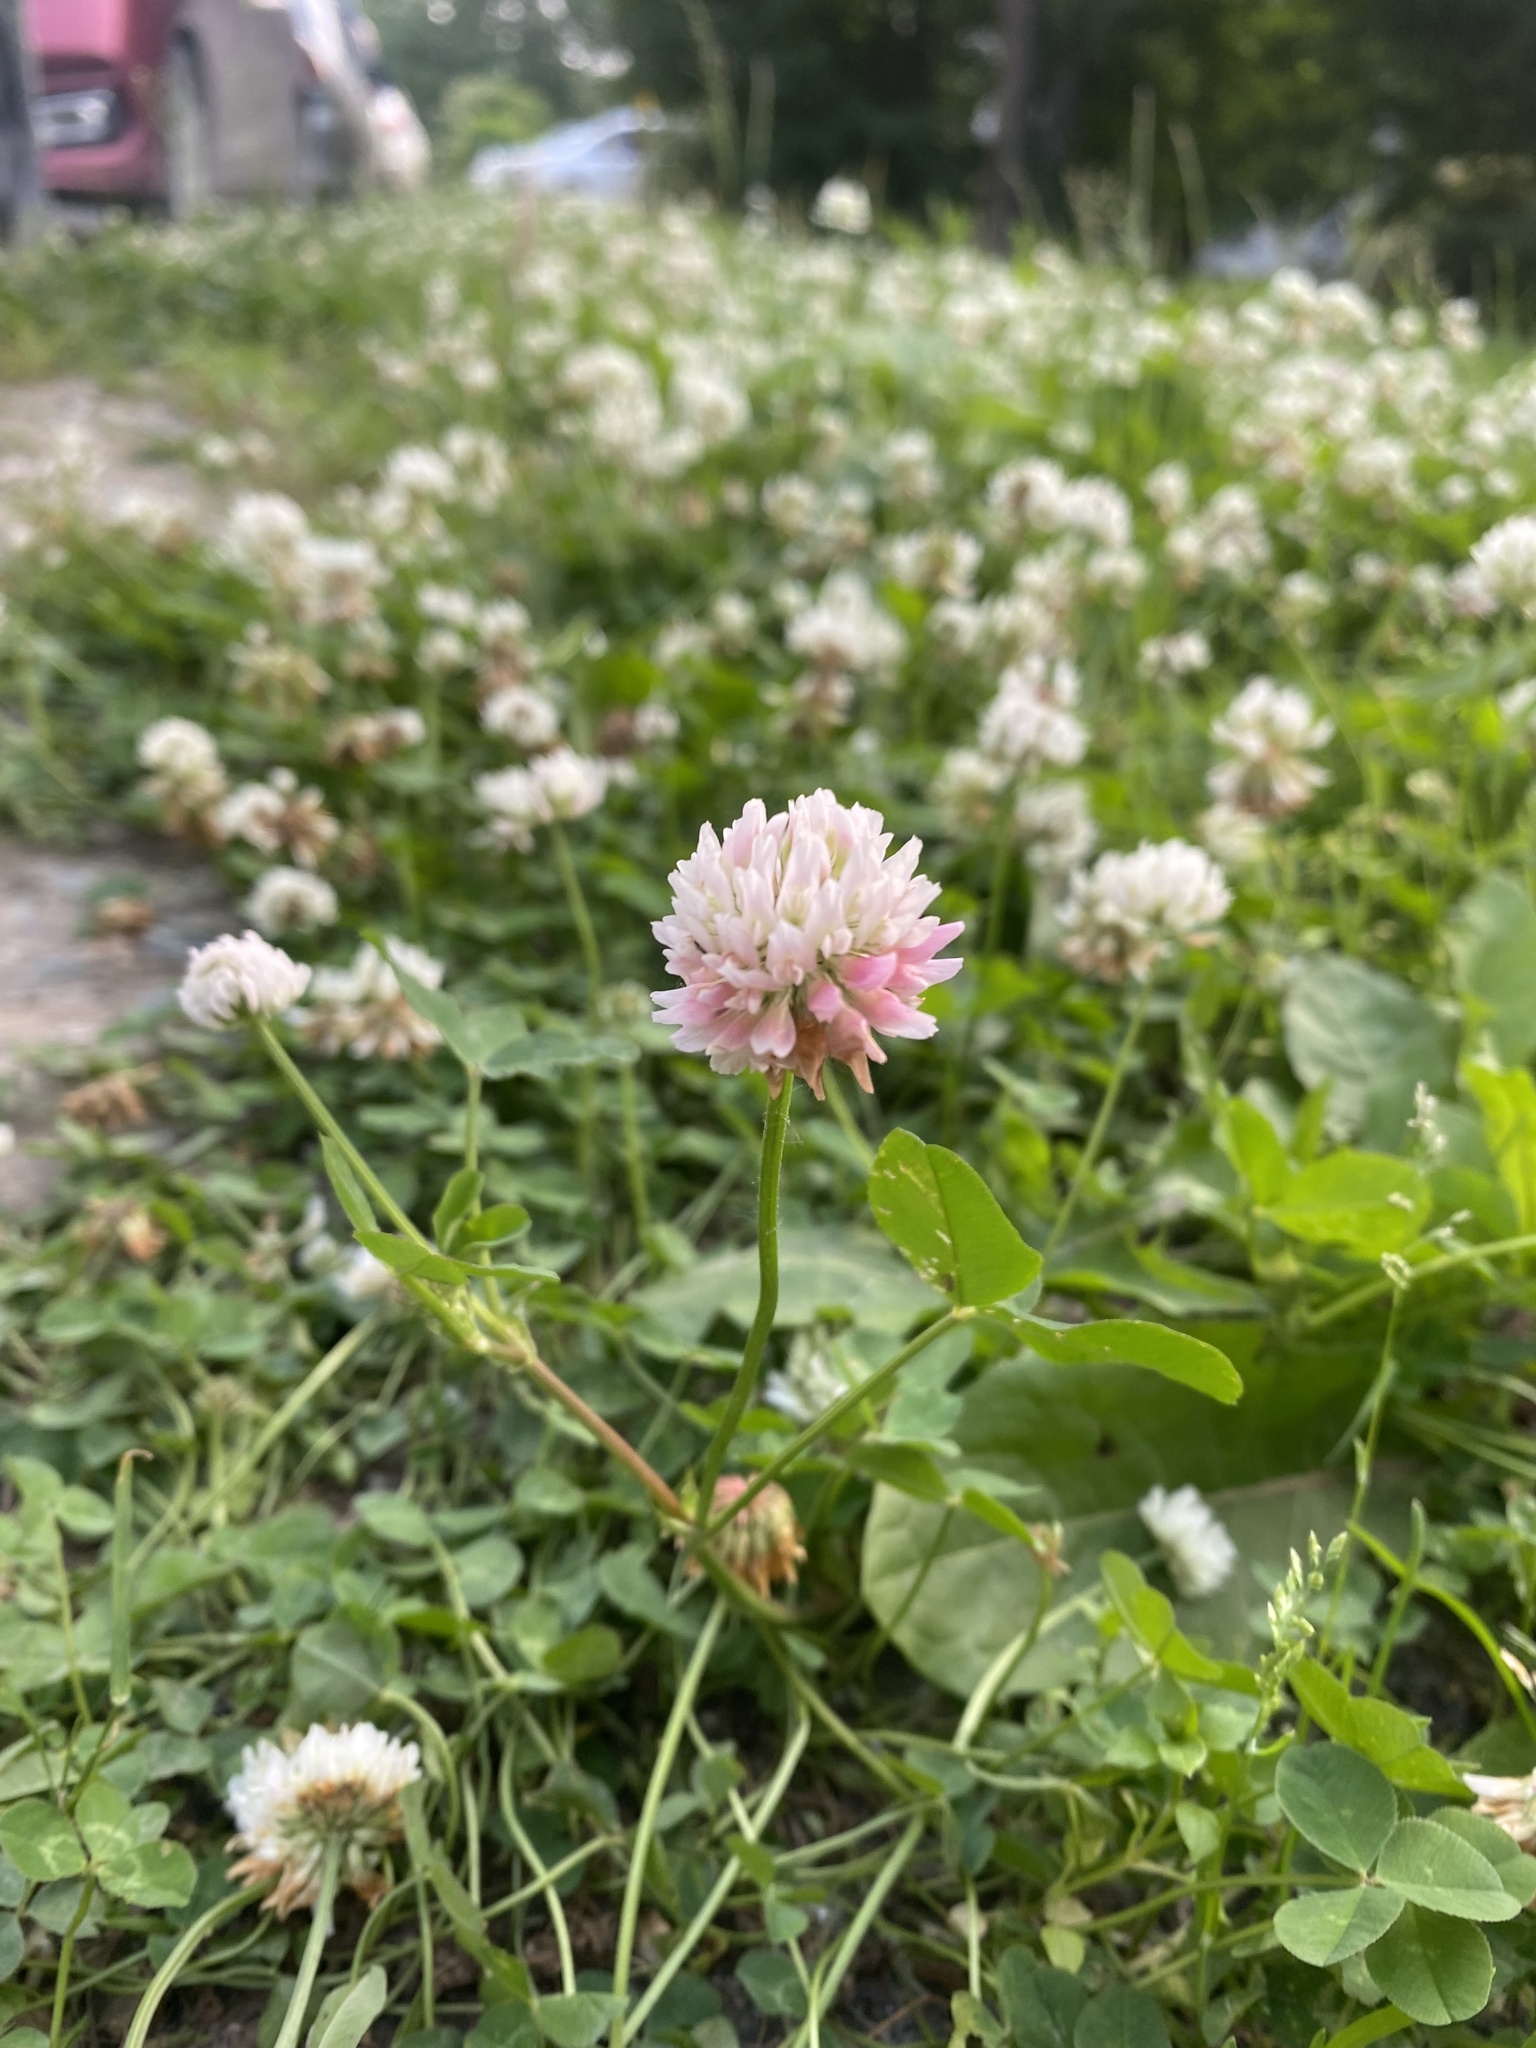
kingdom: Plantae
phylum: Tracheophyta
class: Magnoliopsida
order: Fabales
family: Fabaceae
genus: Trifolium
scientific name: Trifolium hybridum
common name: Alsike clover
